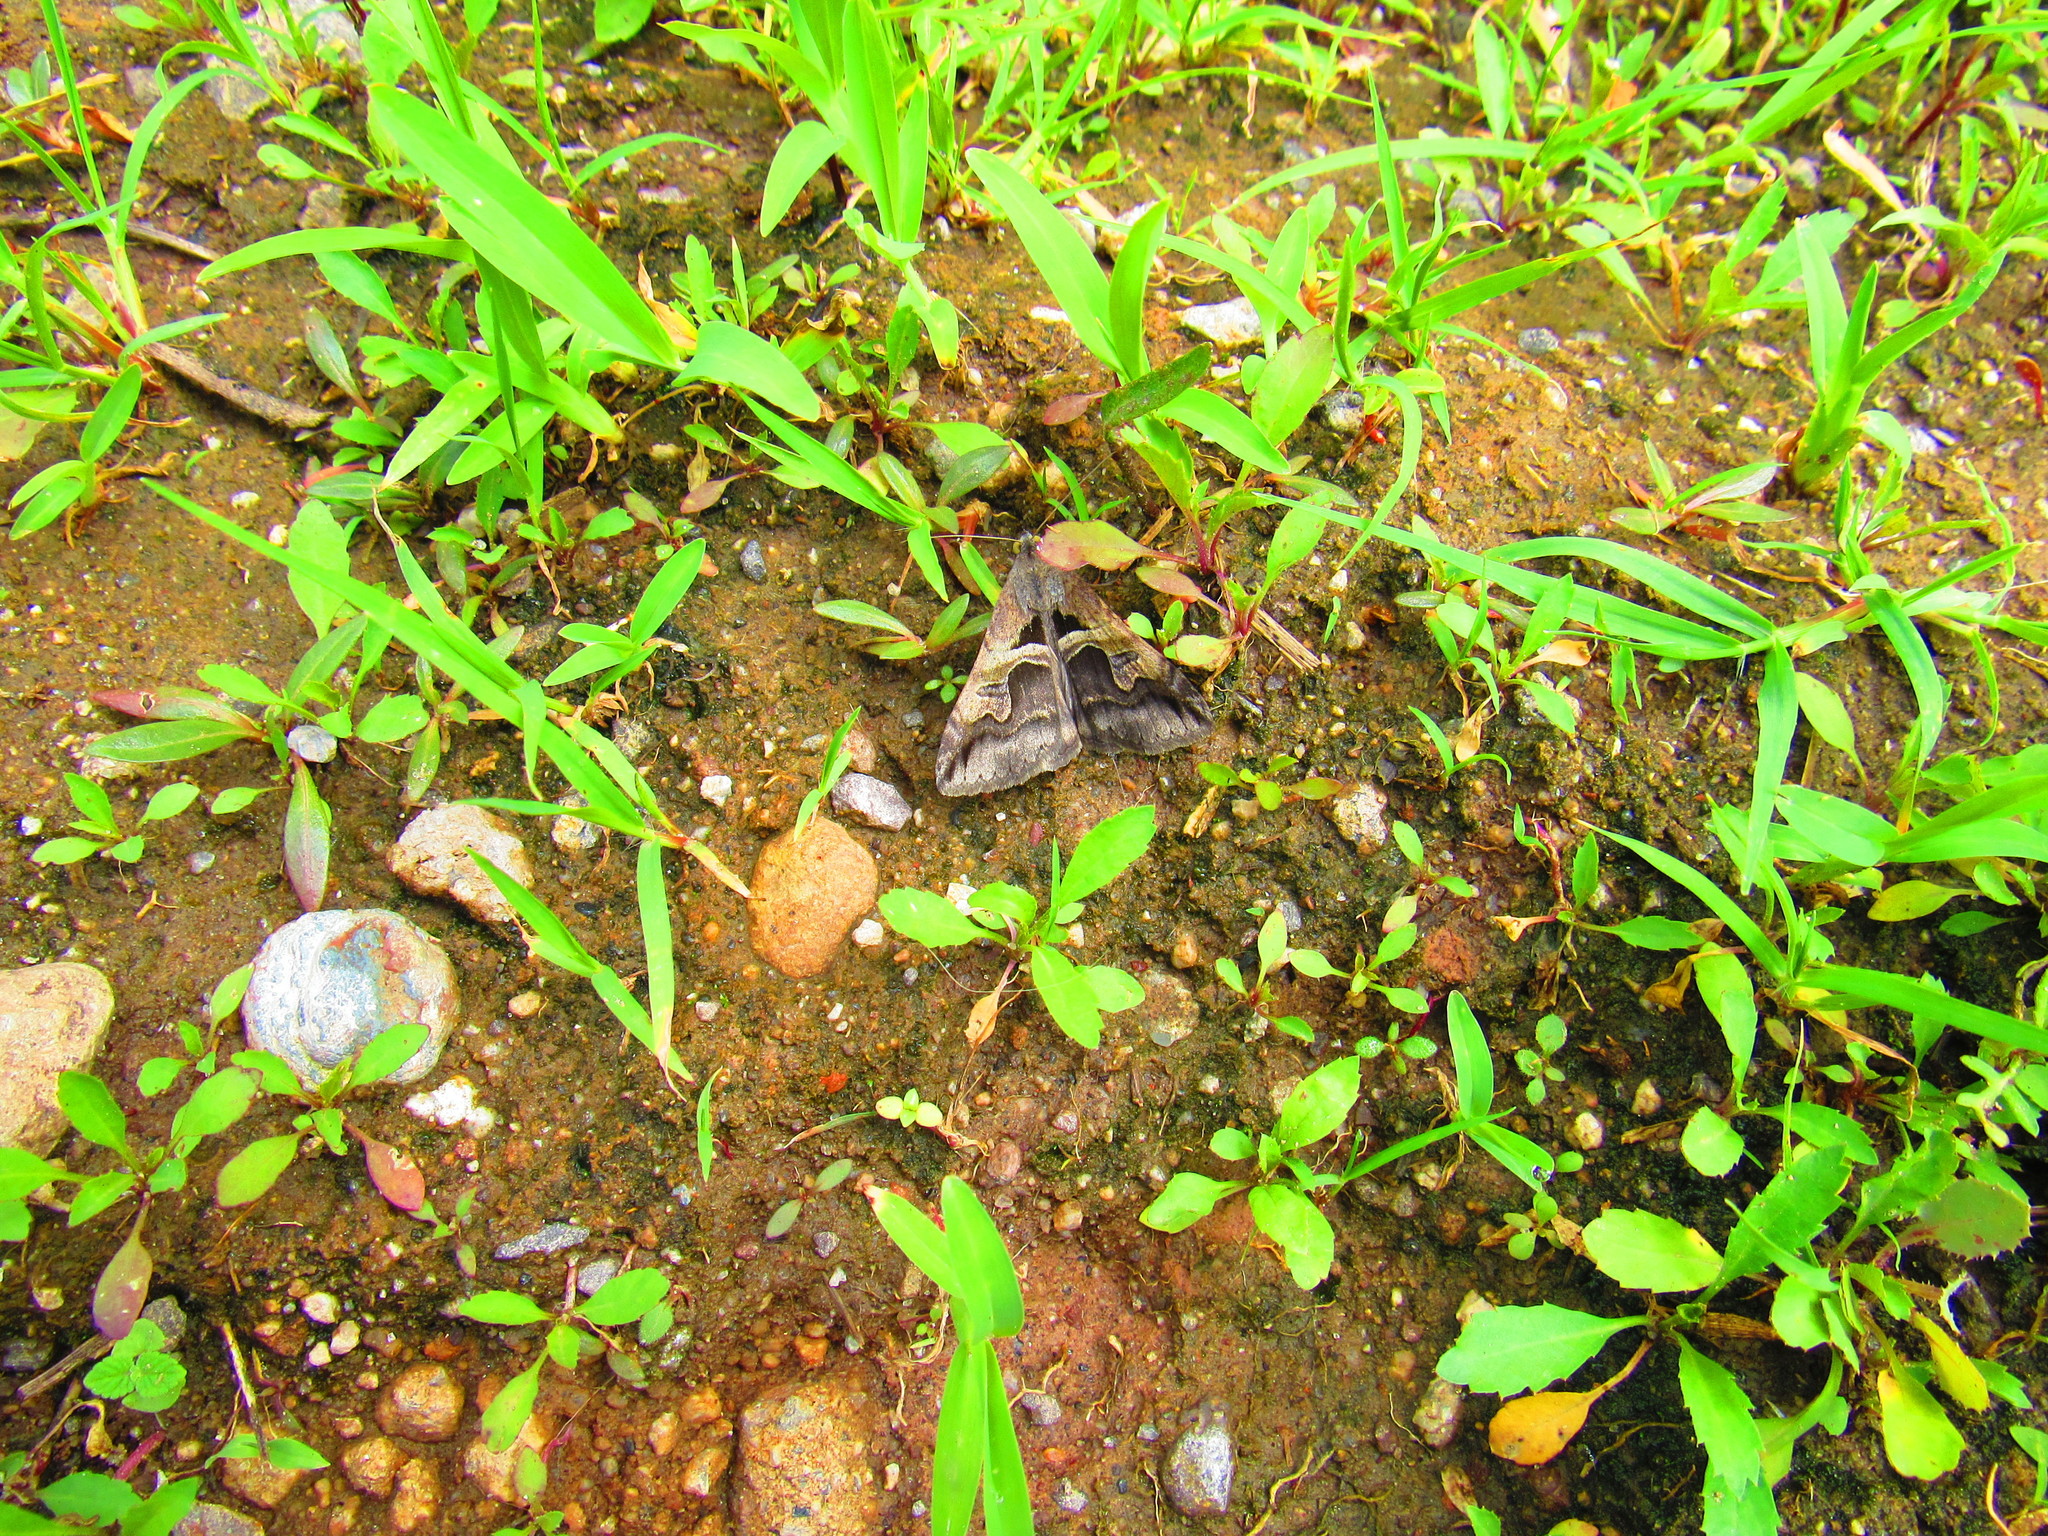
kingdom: Animalia
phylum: Arthropoda
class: Insecta
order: Lepidoptera
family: Erebidae
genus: Melipotis
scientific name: Melipotis cellaris
